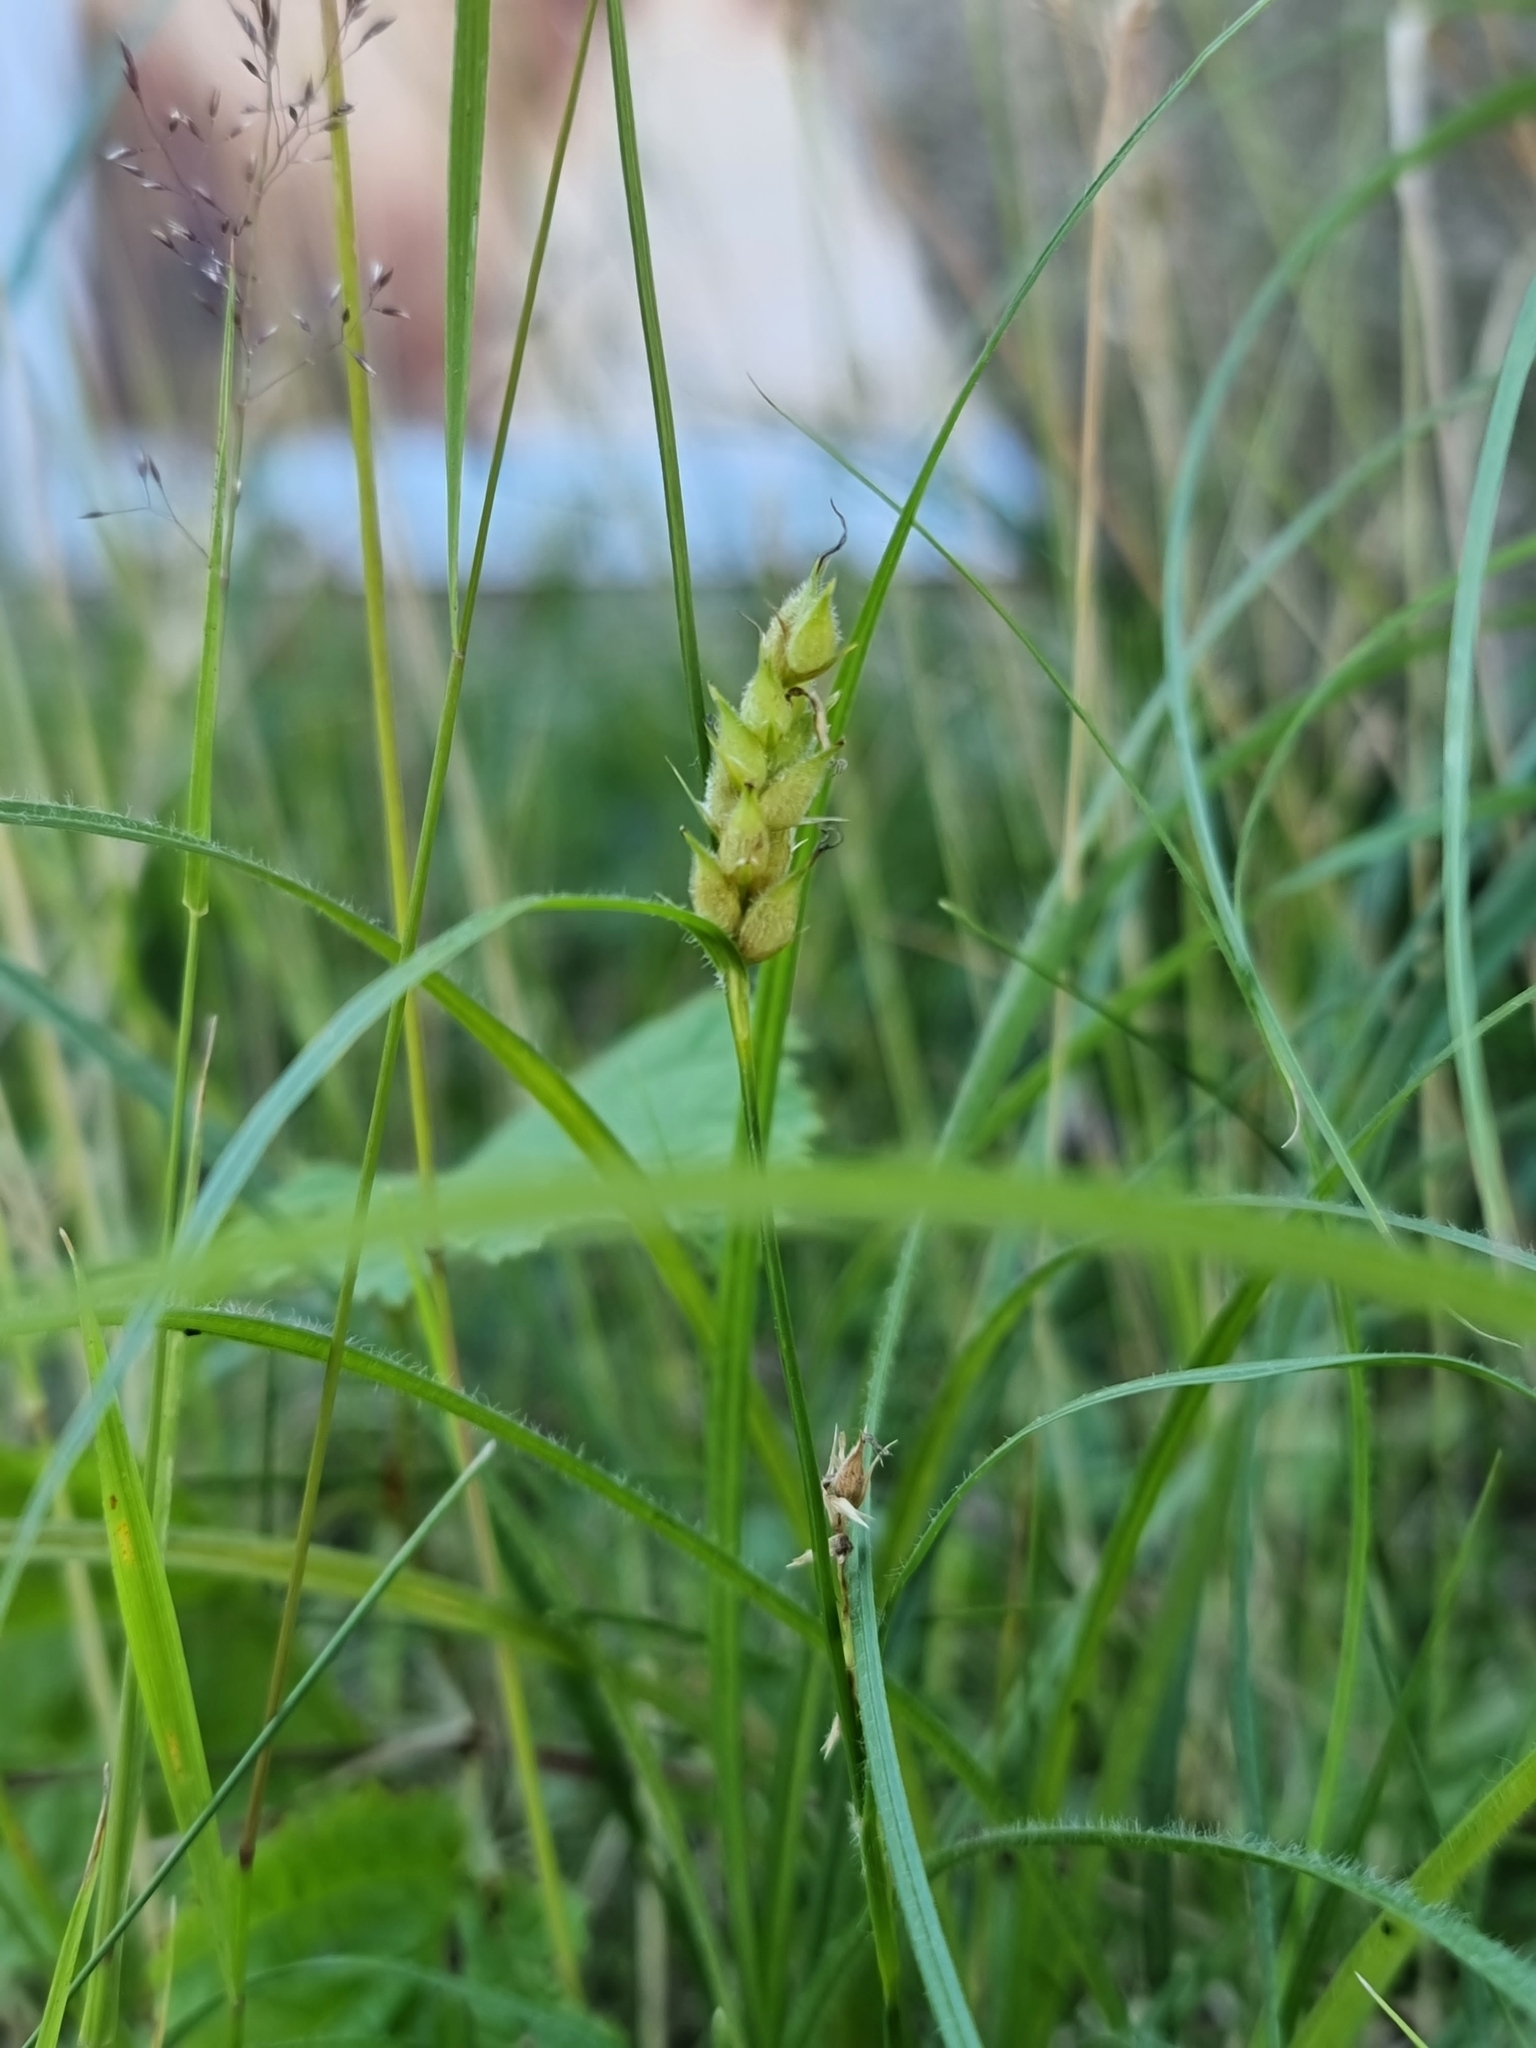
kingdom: Plantae
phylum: Tracheophyta
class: Liliopsida
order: Poales
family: Cyperaceae
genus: Carex
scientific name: Carex hirta
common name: Hairy sedge
